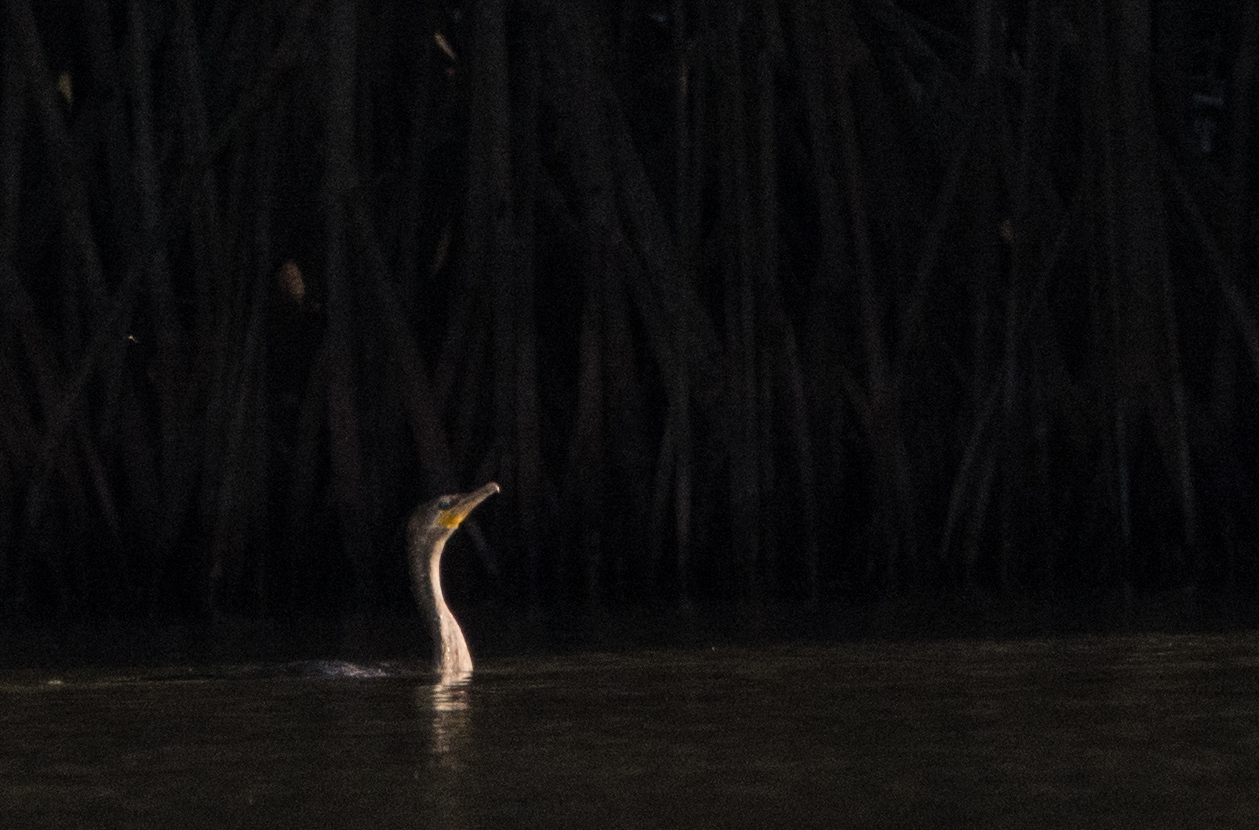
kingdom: Animalia
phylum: Chordata
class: Aves
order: Suliformes
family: Phalacrocoracidae
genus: Phalacrocorax
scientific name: Phalacrocorax brasilianus
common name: Neotropic cormorant
